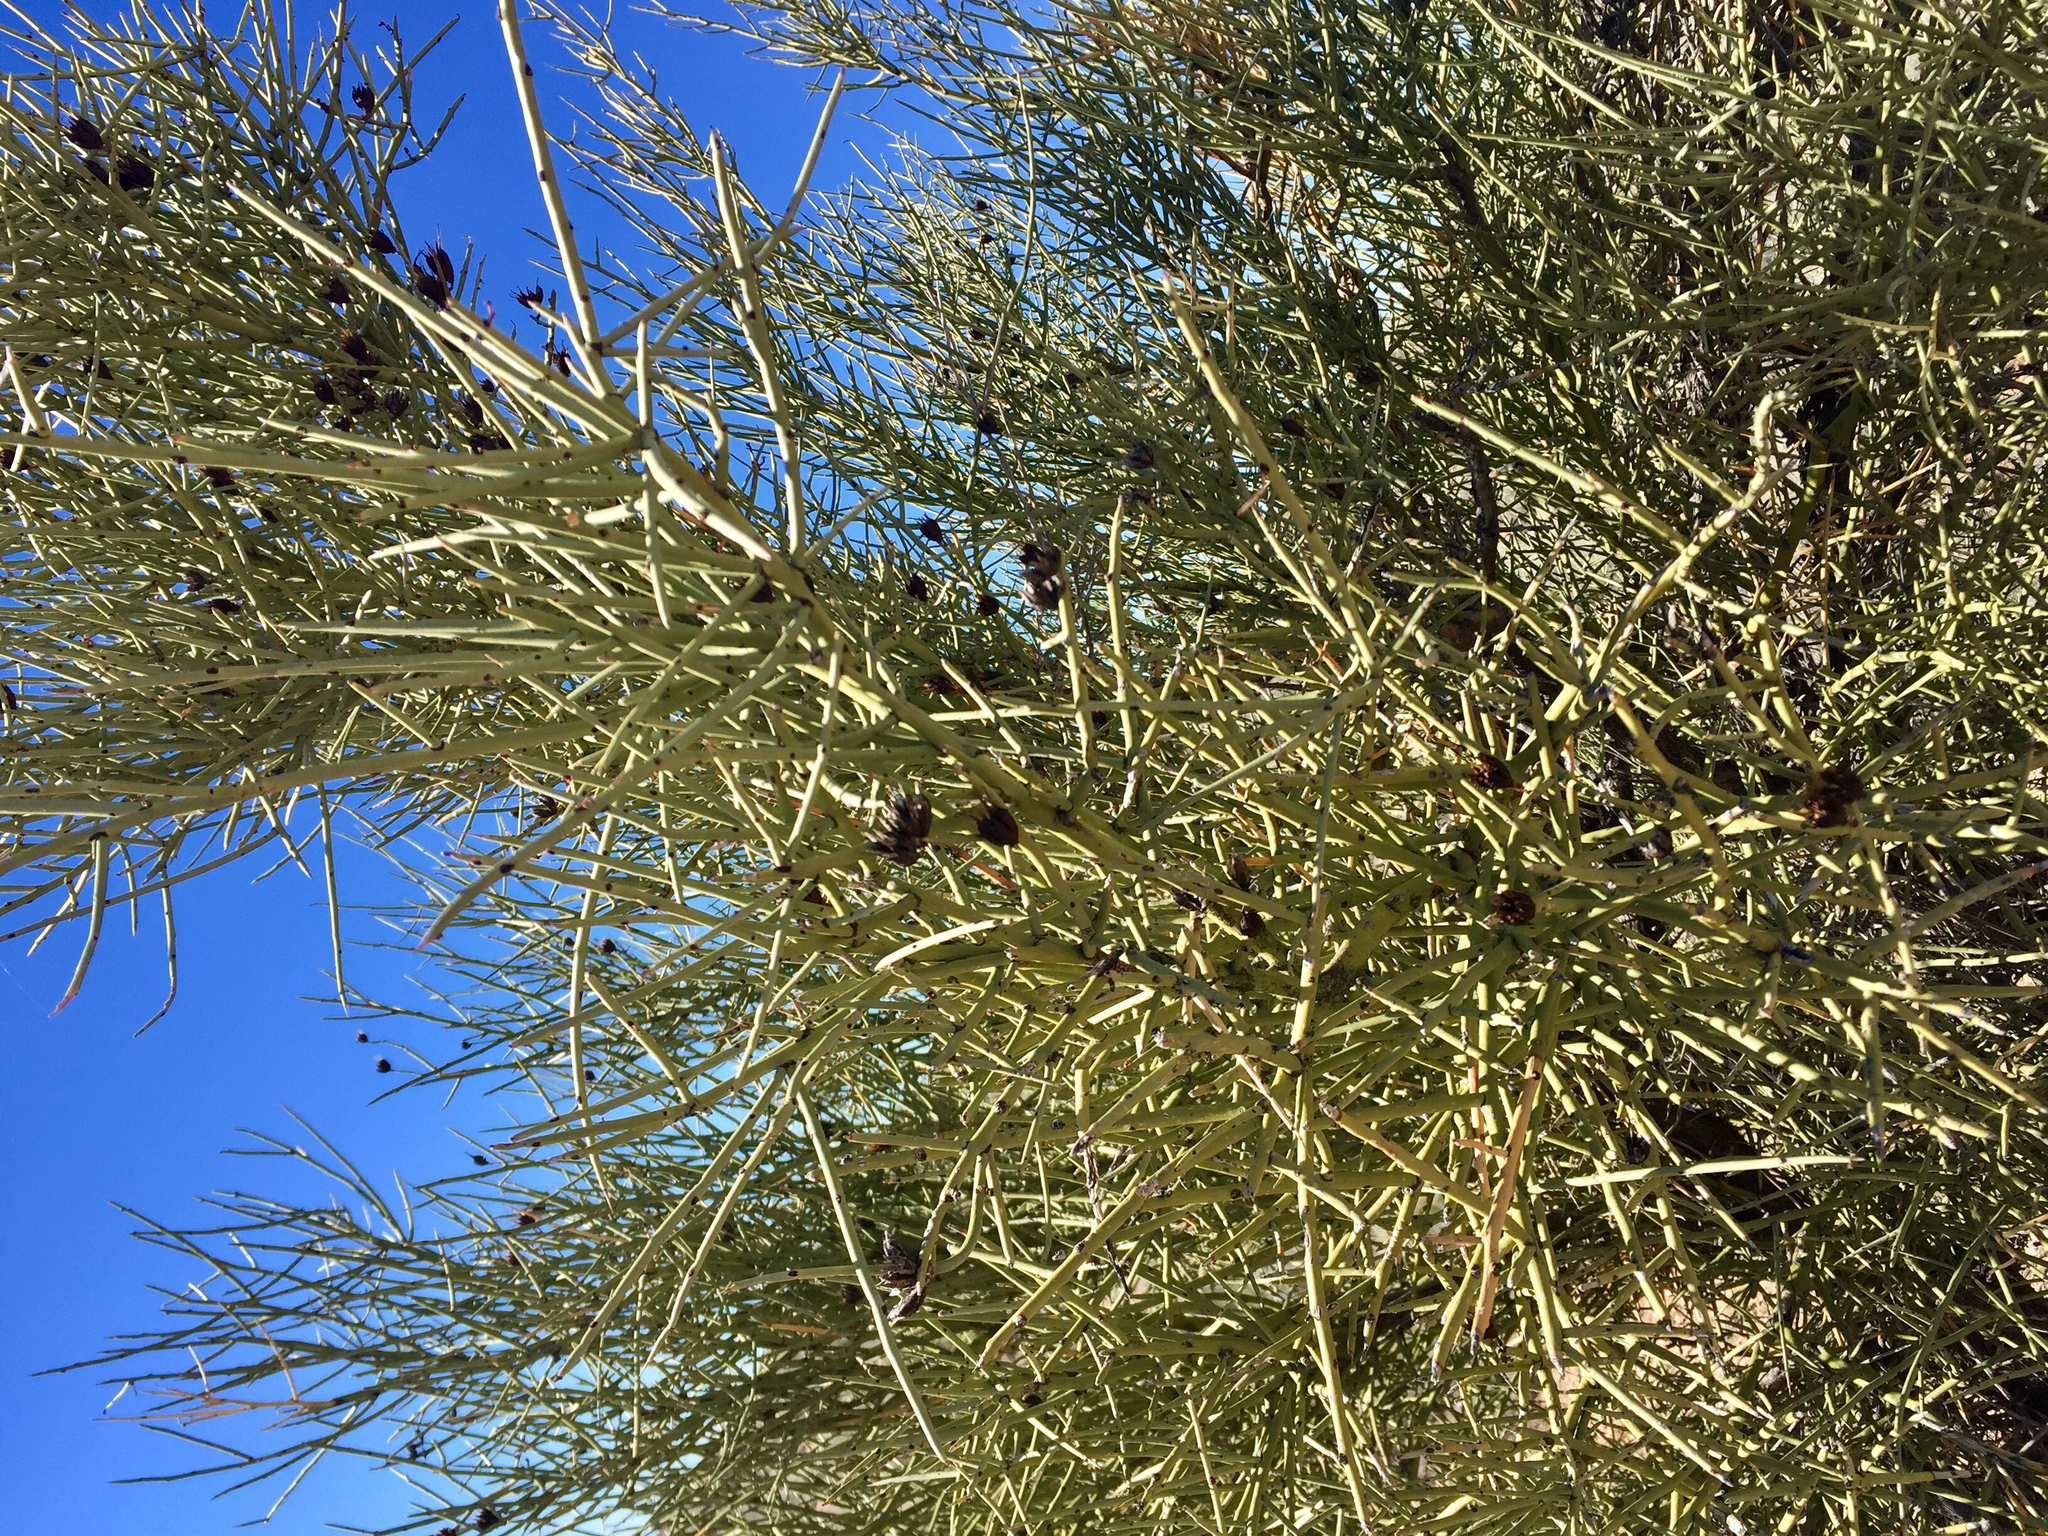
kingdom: Plantae
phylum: Tracheophyta
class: Magnoliopsida
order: Celastrales
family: Celastraceae
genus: Canotia
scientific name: Canotia holacantha
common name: Crucifixion thorns
